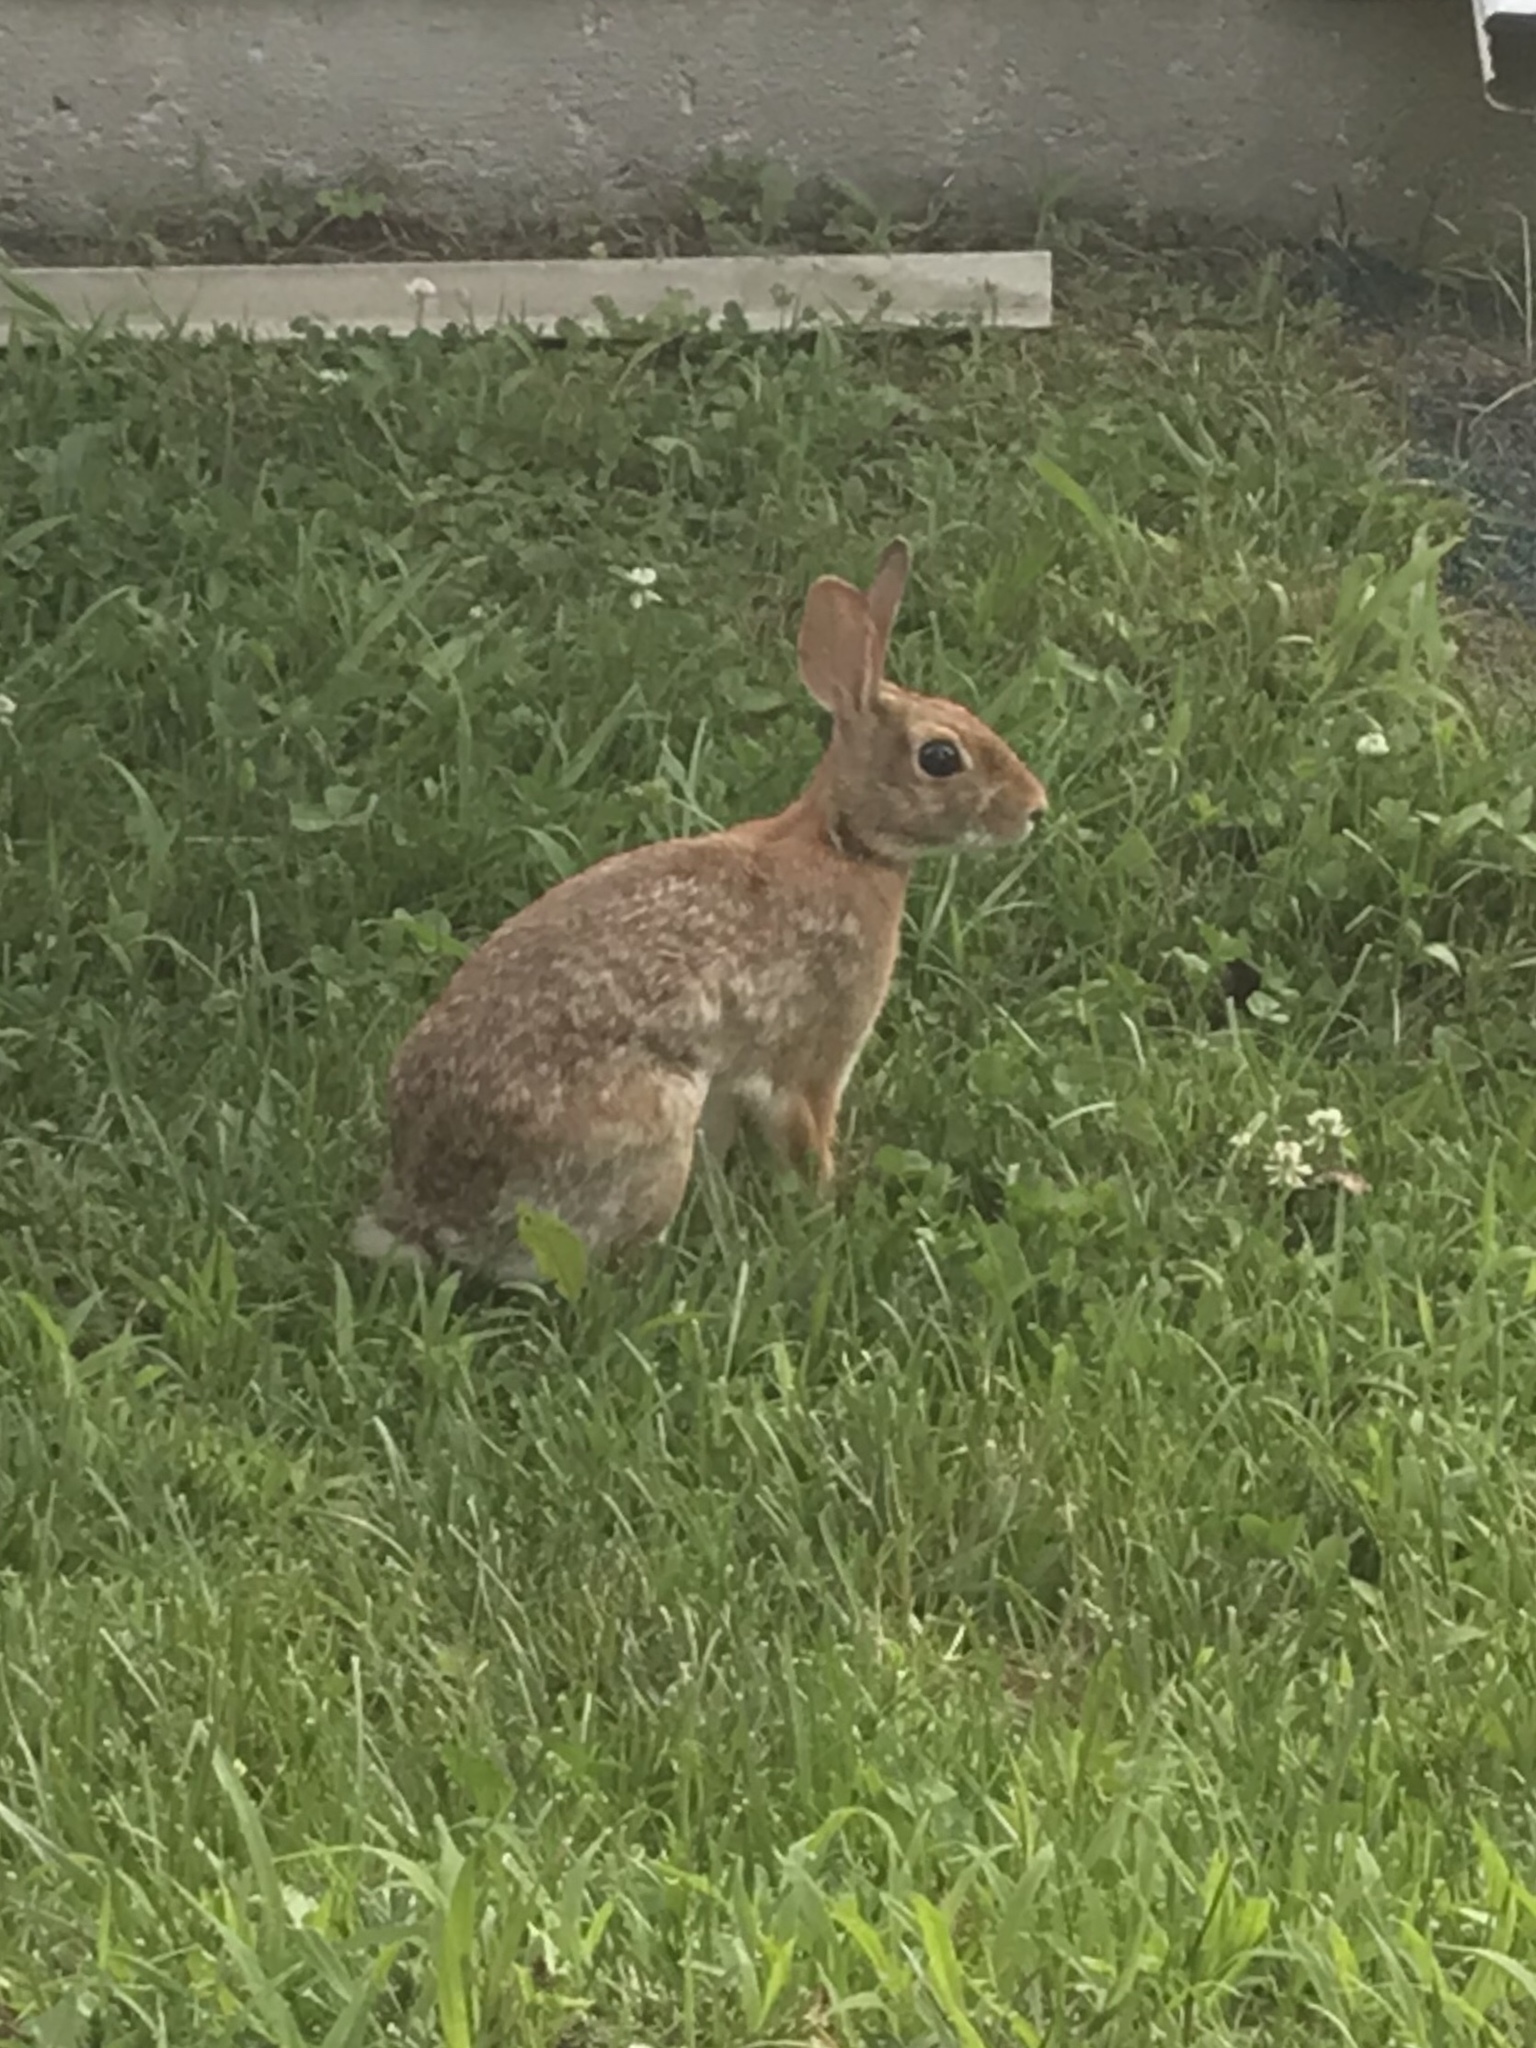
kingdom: Animalia
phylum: Chordata
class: Mammalia
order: Lagomorpha
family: Leporidae
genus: Sylvilagus
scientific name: Sylvilagus floridanus
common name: Eastern cottontail
